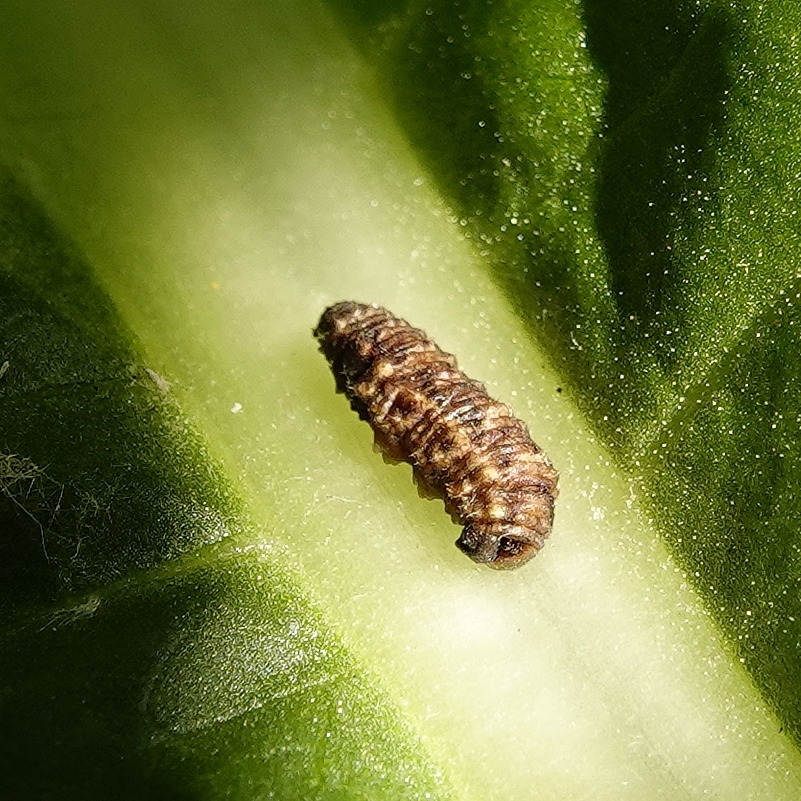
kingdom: Animalia
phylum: Arthropoda
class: Insecta
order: Diptera
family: Syrphidae
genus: Eupeodes
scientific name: Eupeodes
